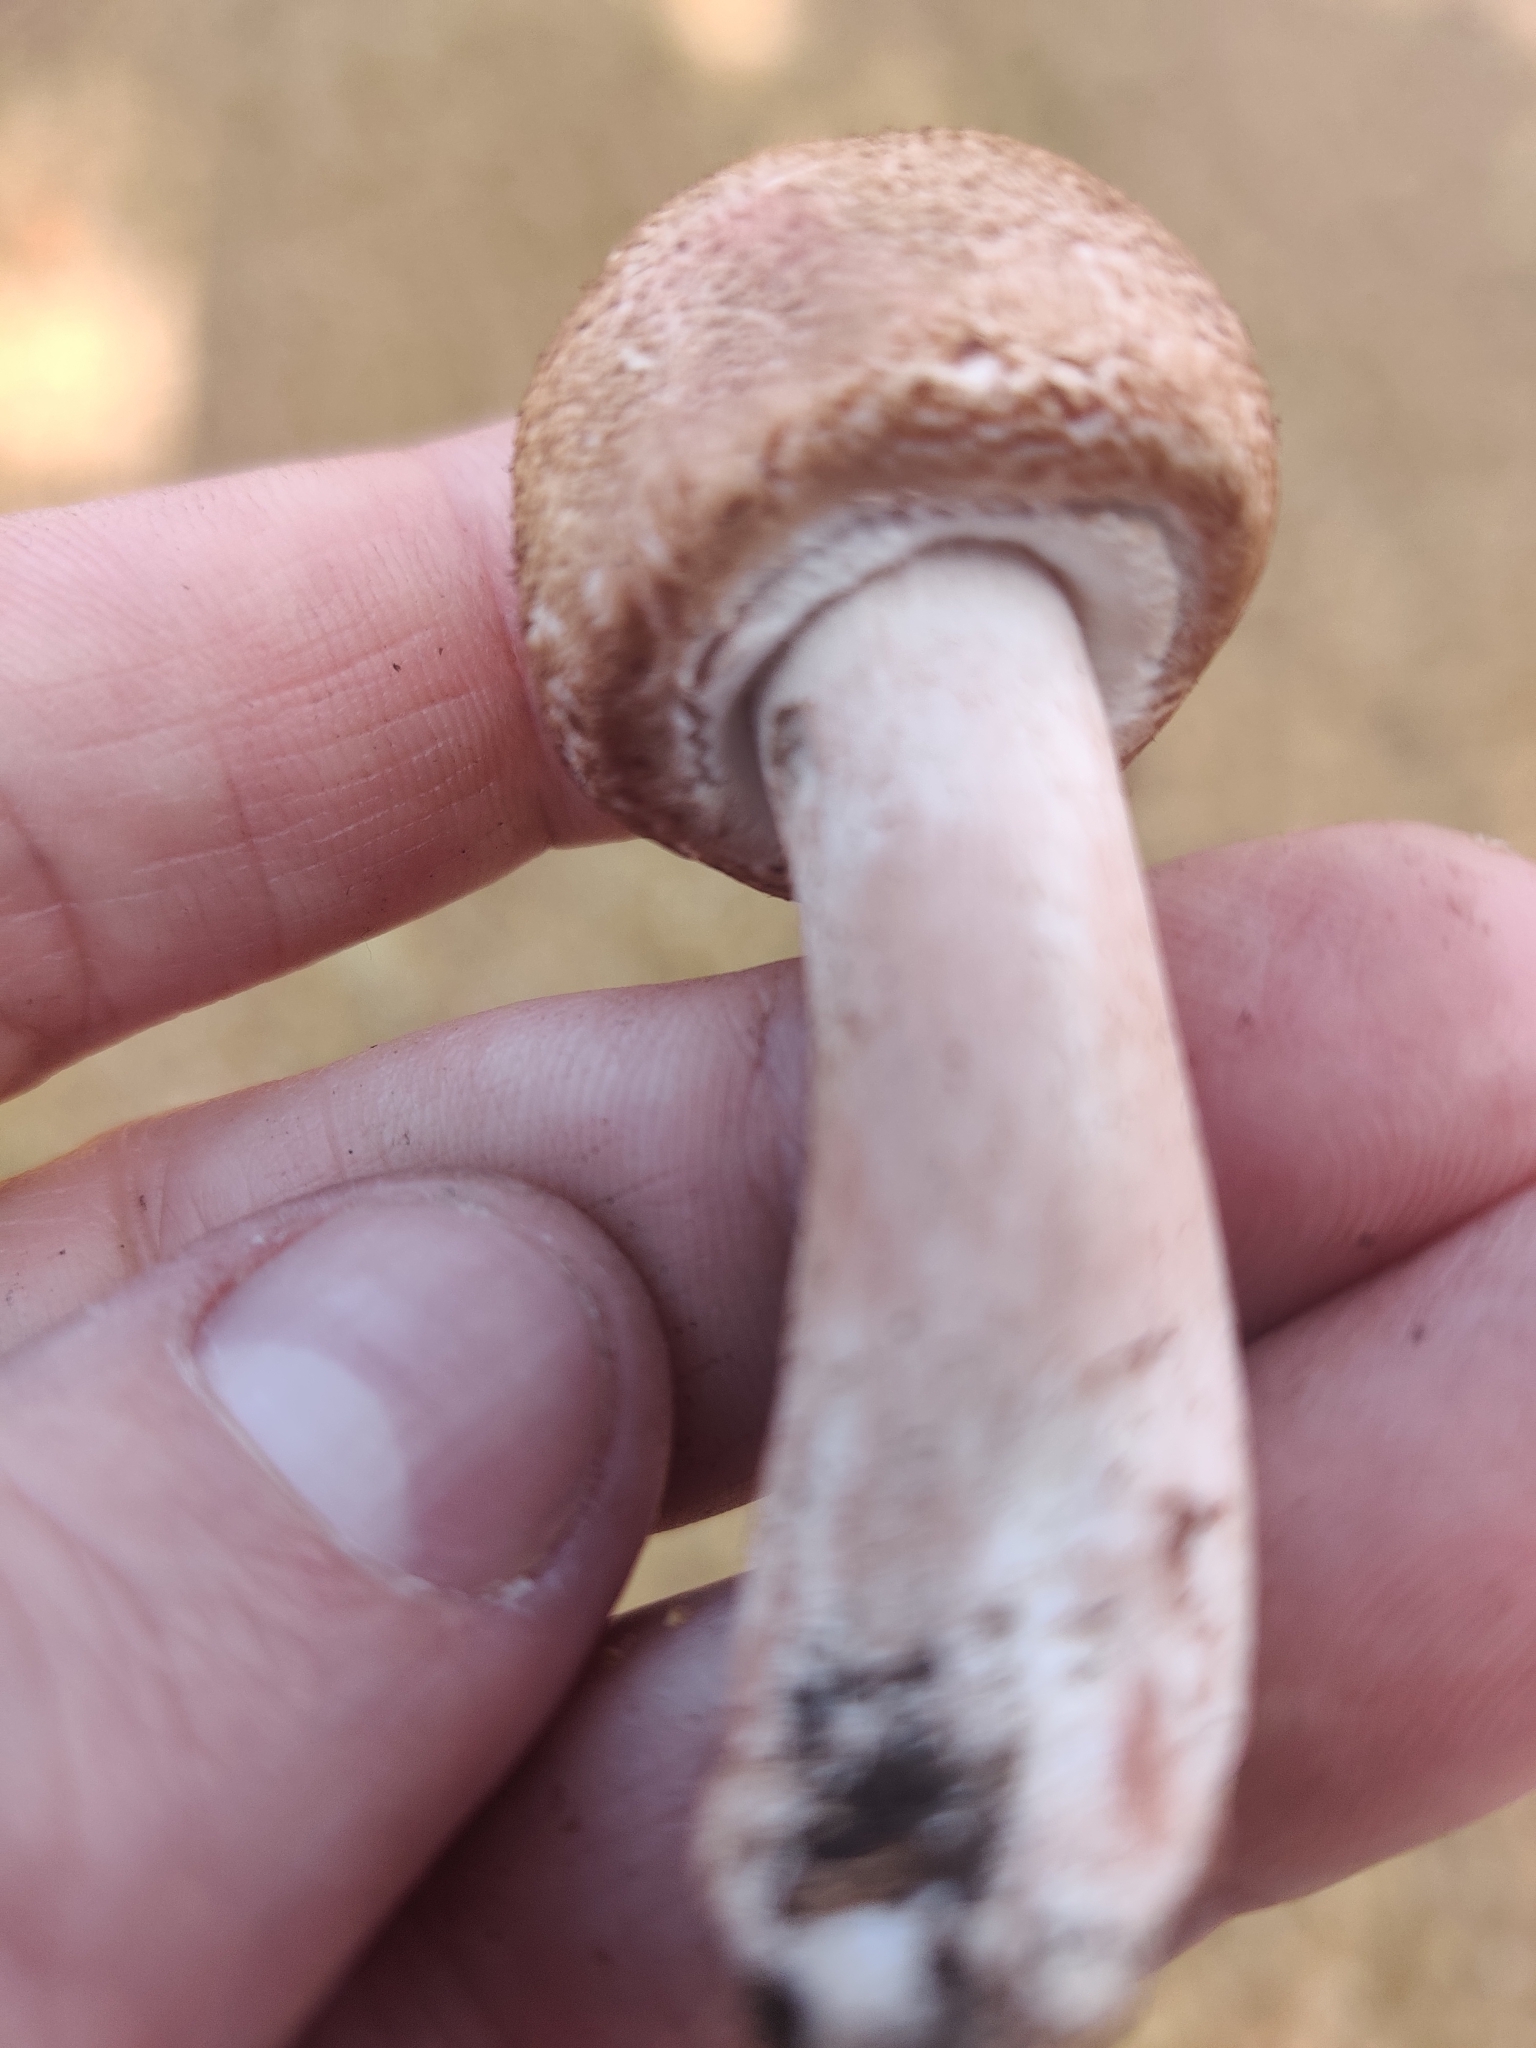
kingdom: Fungi
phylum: Basidiomycota
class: Agaricomycetes
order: Agaricales
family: Agaricaceae
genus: Agaricus
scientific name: Agaricus sylvaticus
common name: Blushing wood mushroom
